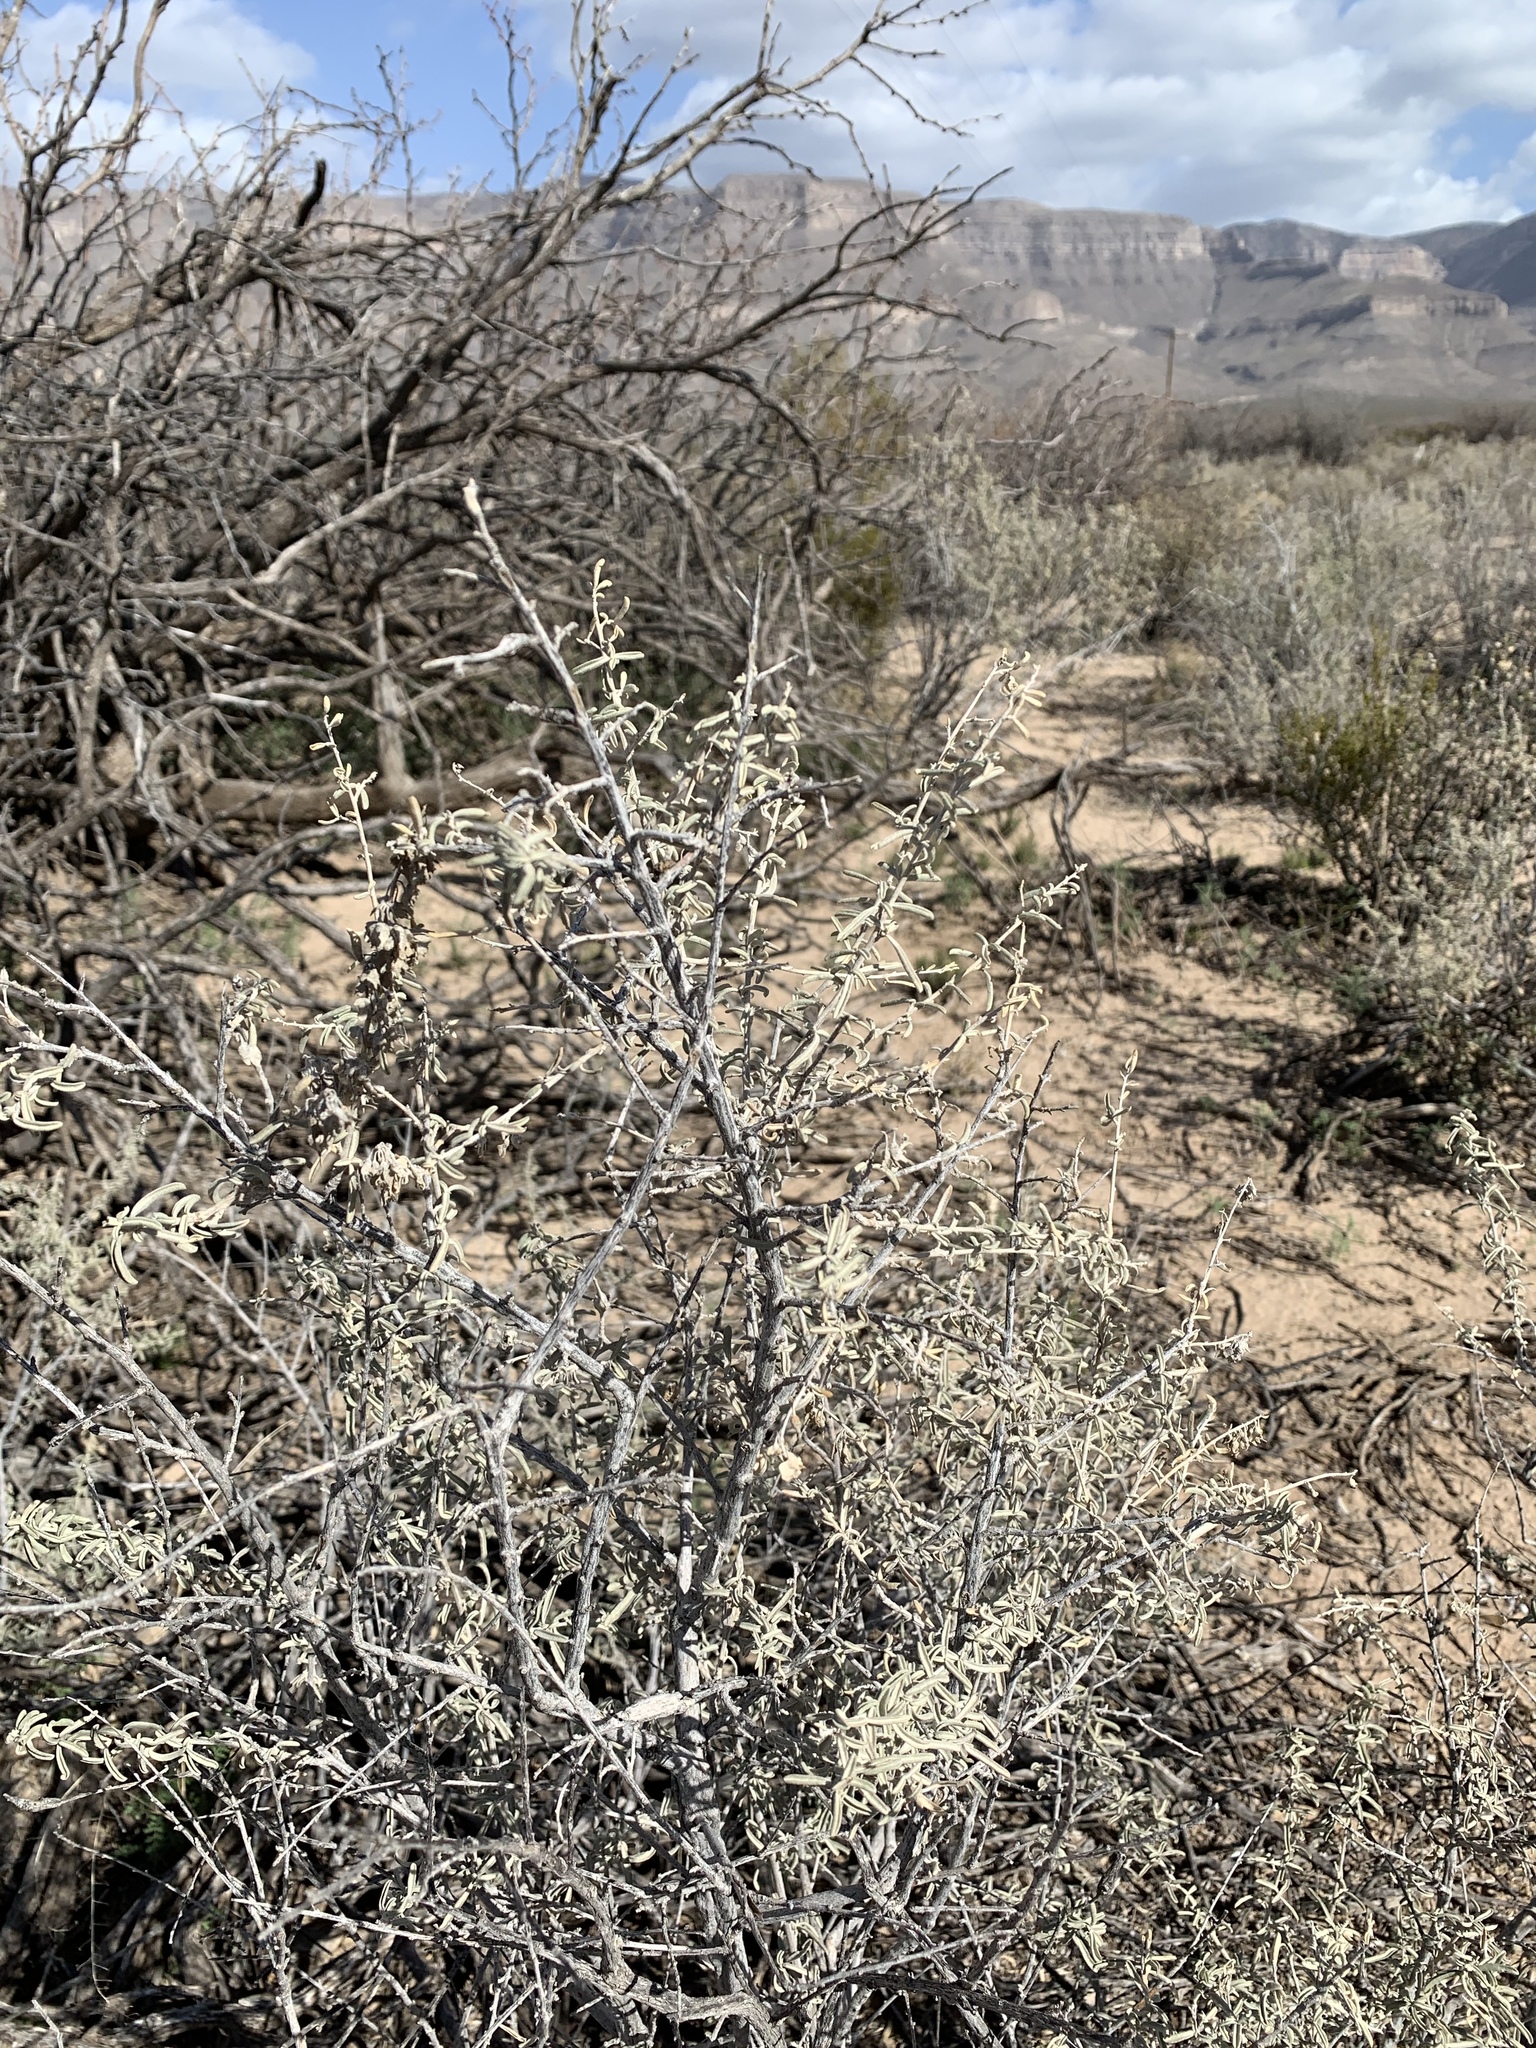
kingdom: Plantae
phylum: Tracheophyta
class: Magnoliopsida
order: Caryophyllales
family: Amaranthaceae
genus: Atriplex
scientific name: Atriplex canescens
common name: Four-wing saltbush
